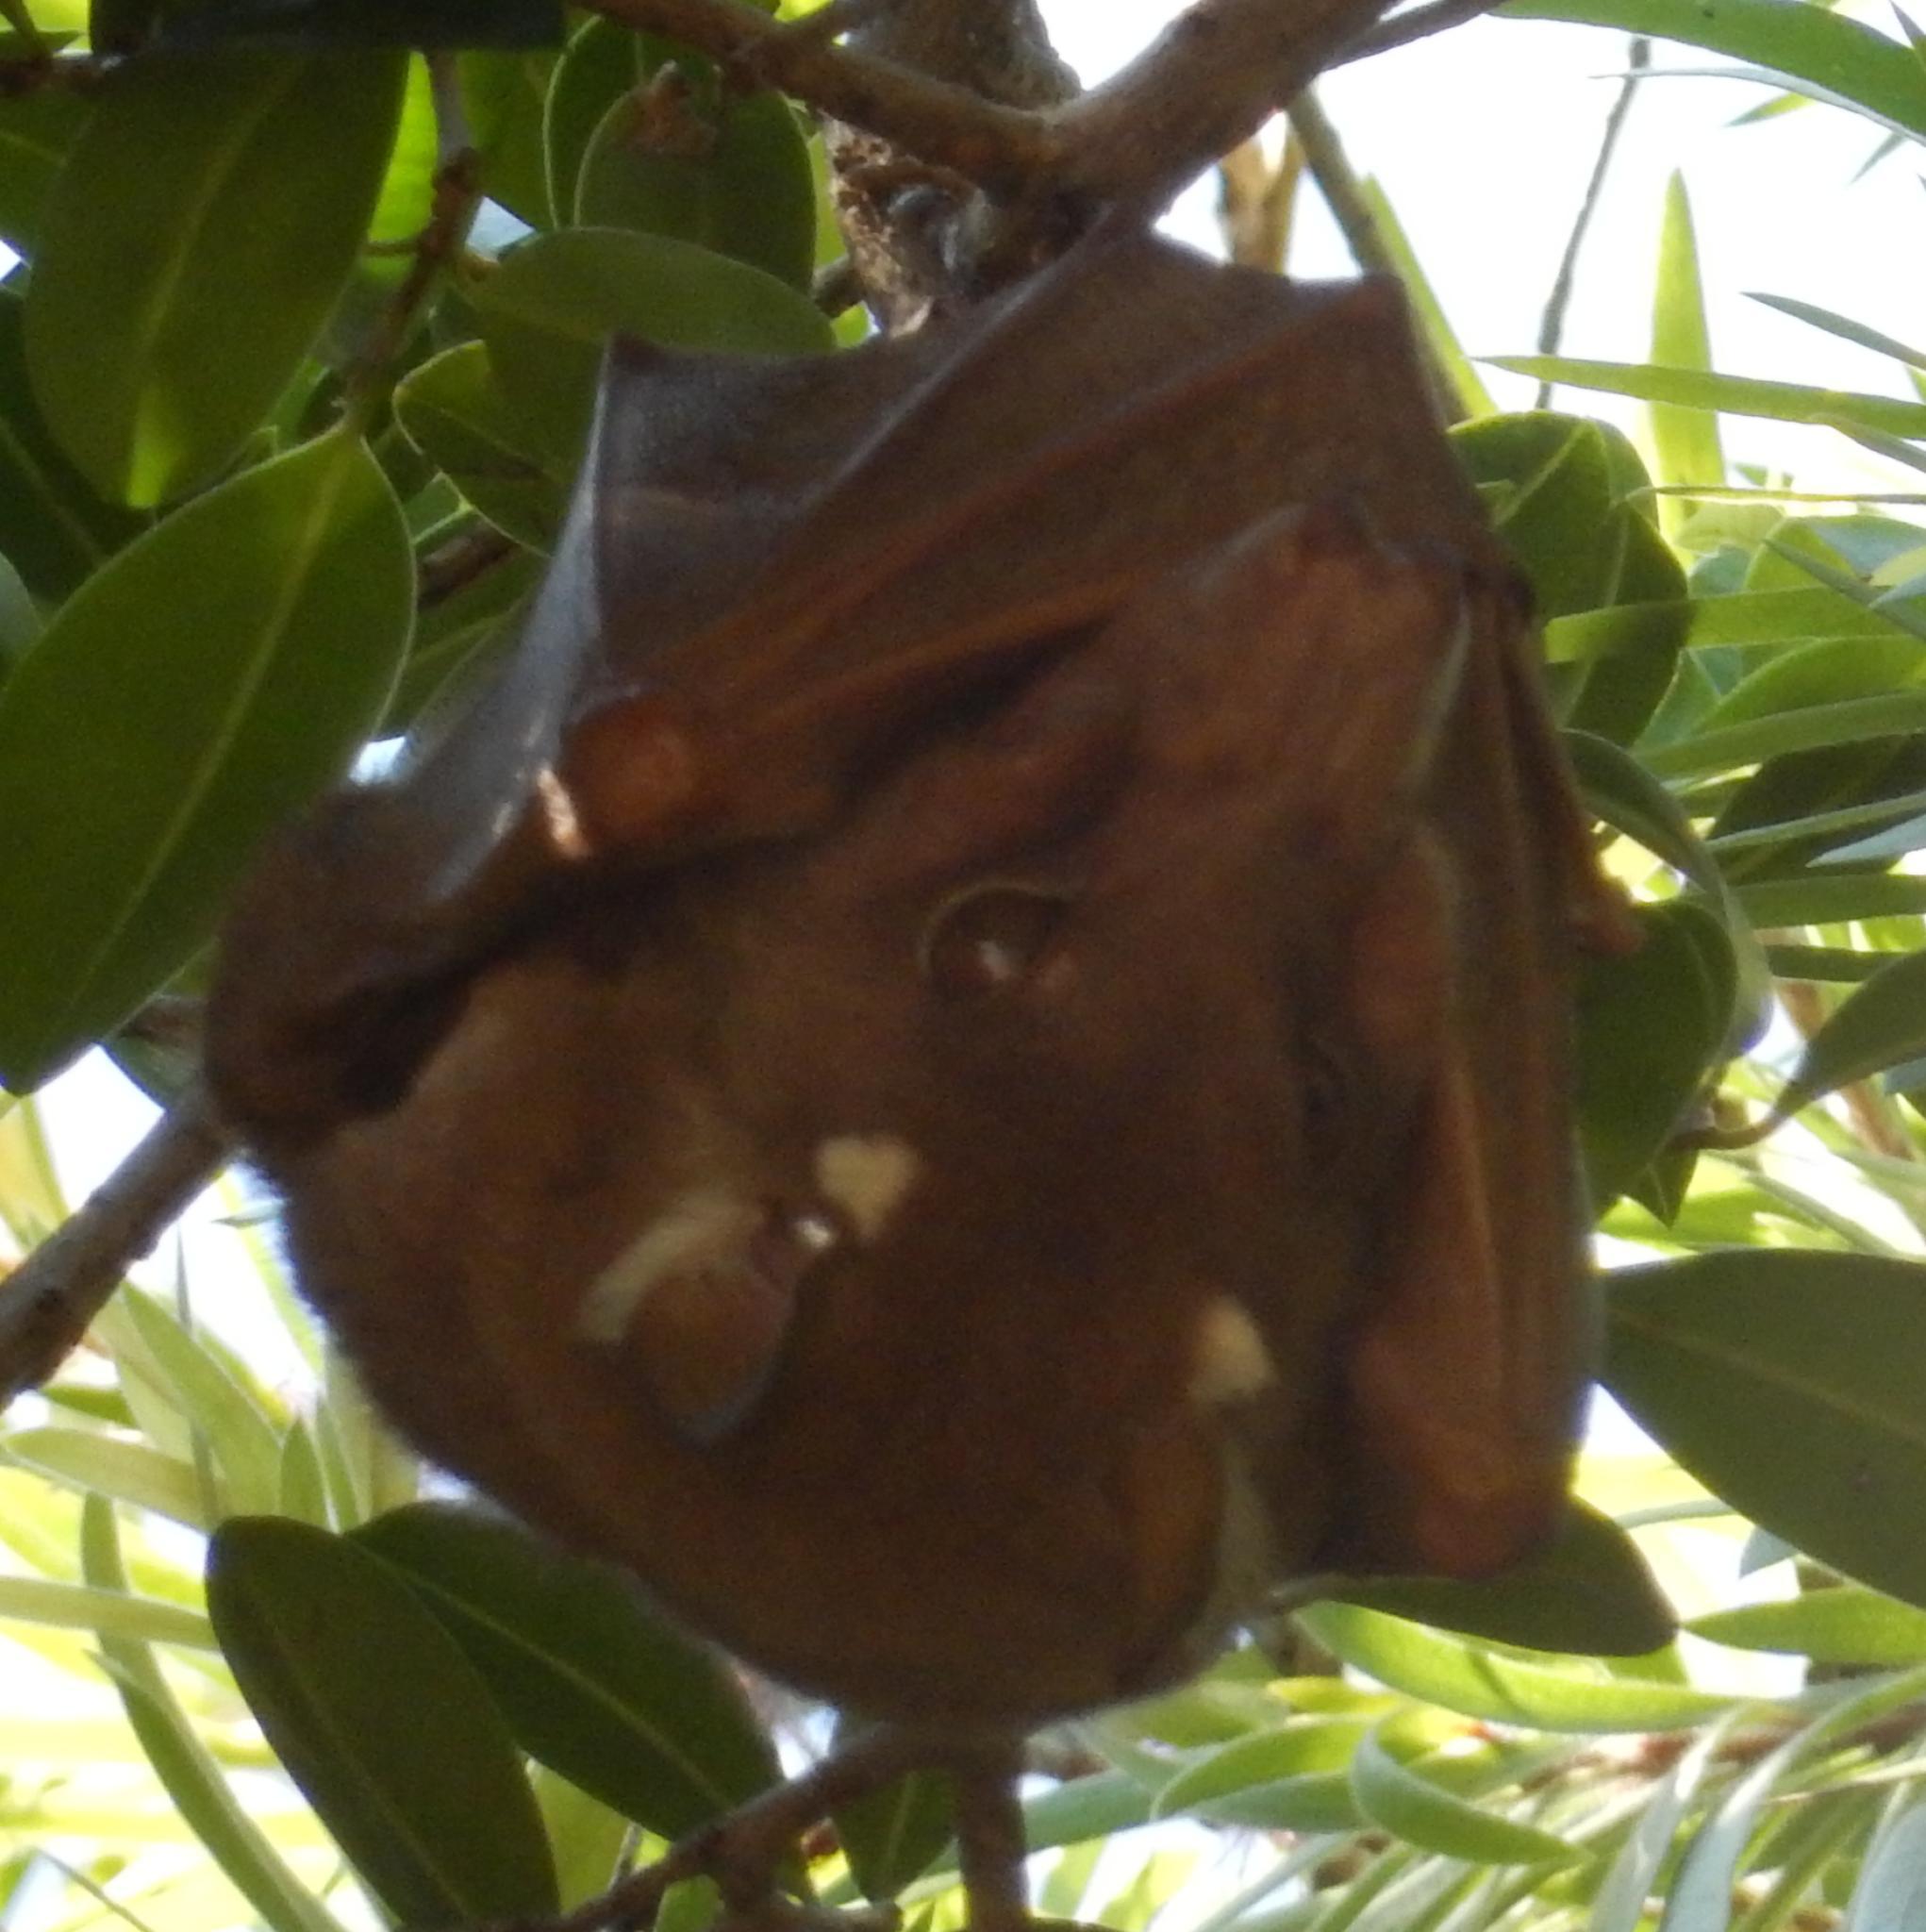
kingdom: Animalia
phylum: Chordata
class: Mammalia
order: Chiroptera
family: Pteropodidae
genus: Epomophorus
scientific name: Epomophorus wahlbergi
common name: Wahlberg's epauletted fruit bat
